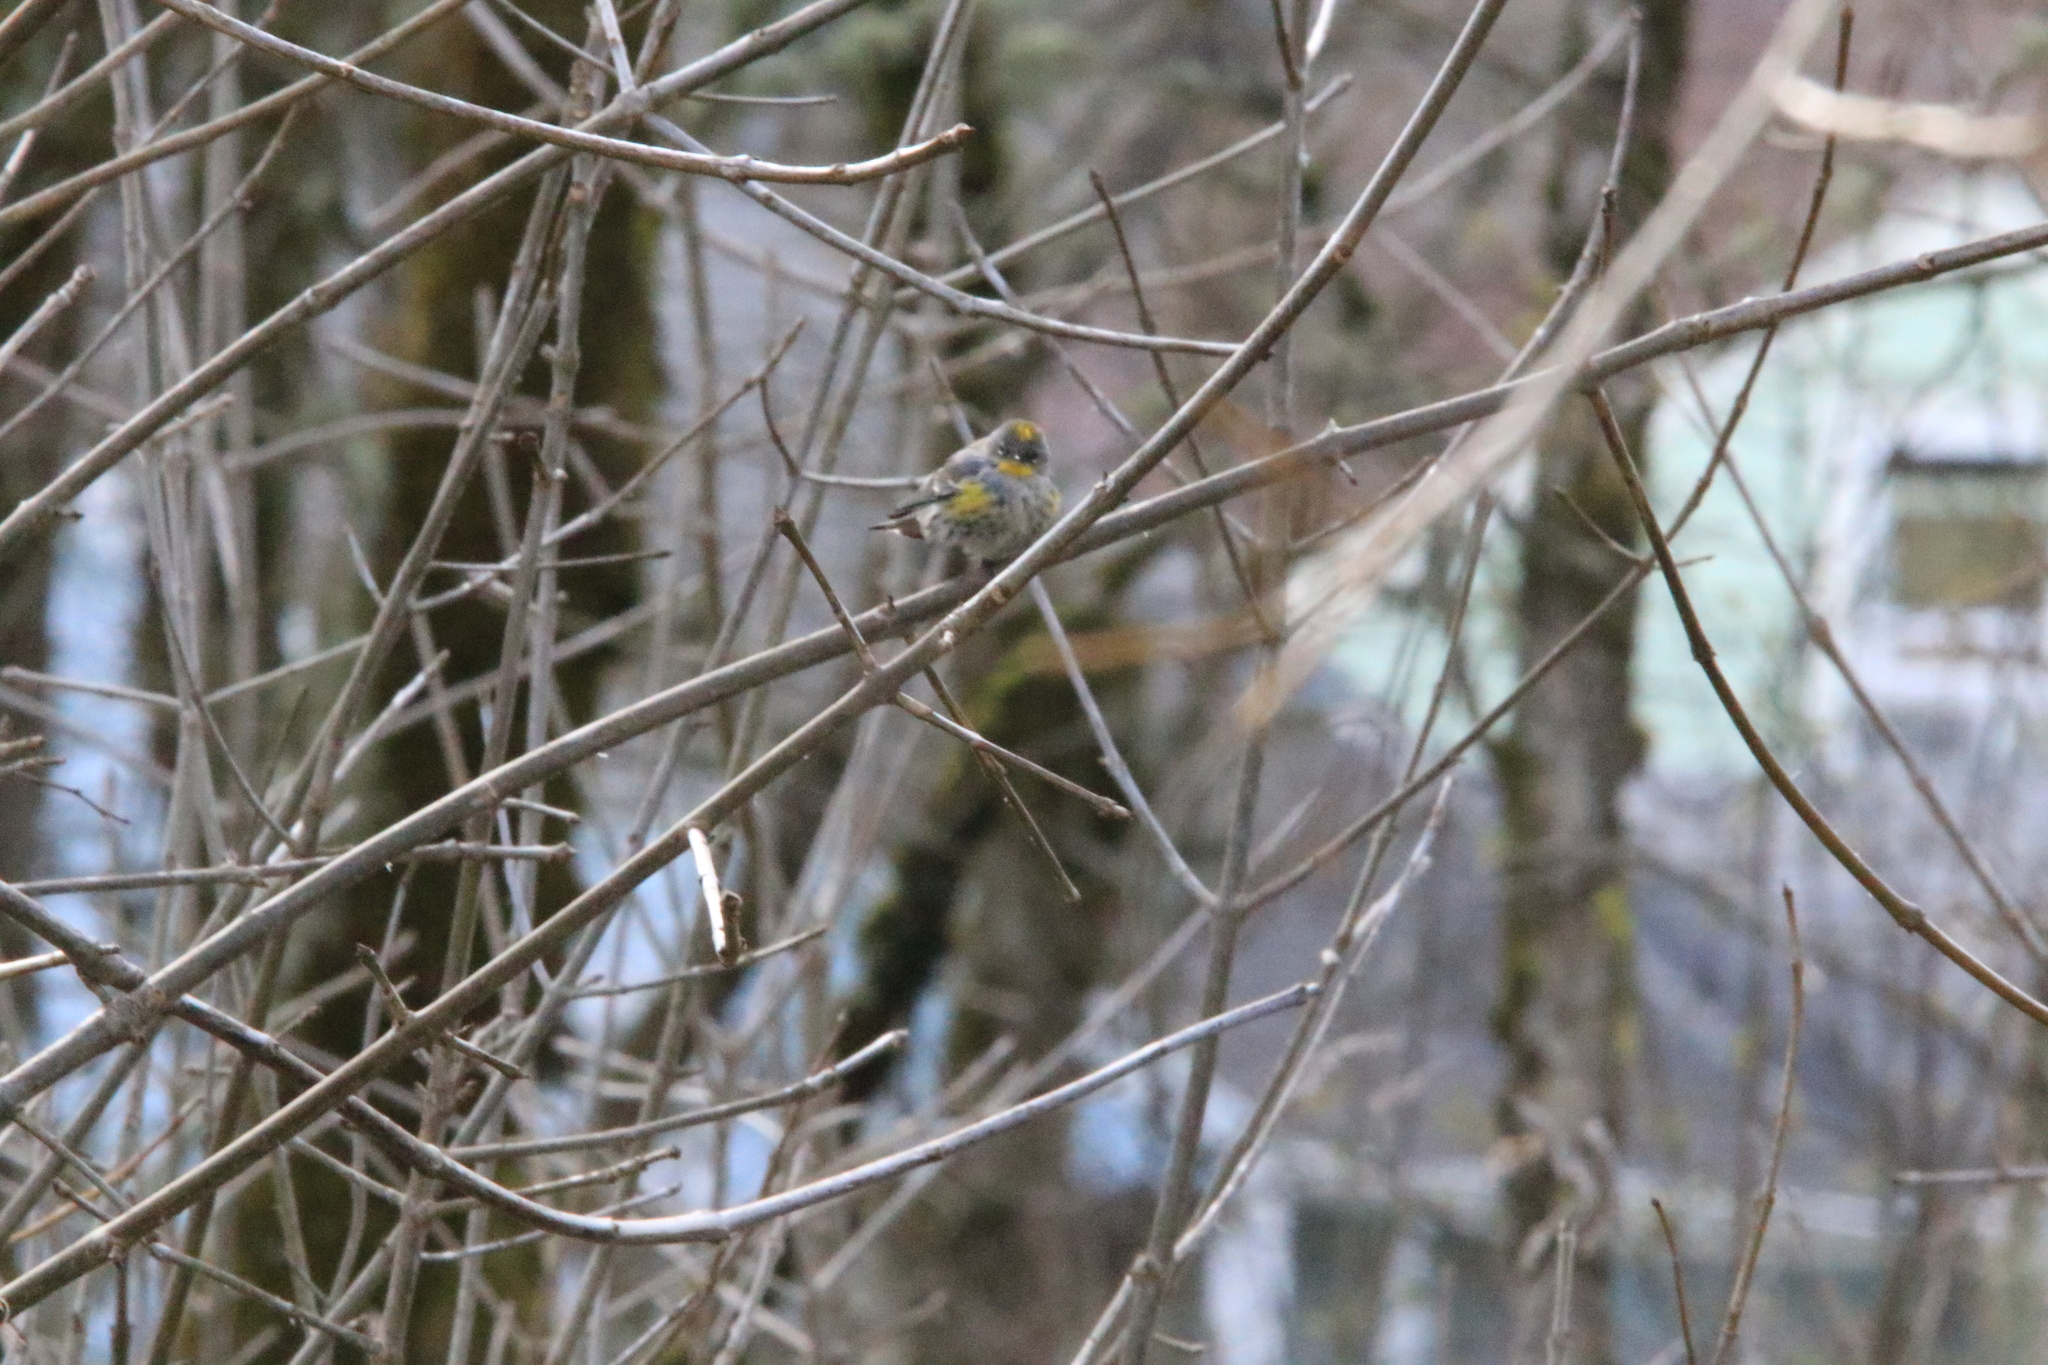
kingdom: Animalia
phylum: Chordata
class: Aves
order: Passeriformes
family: Parulidae
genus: Setophaga
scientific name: Setophaga coronata
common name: Myrtle warbler
